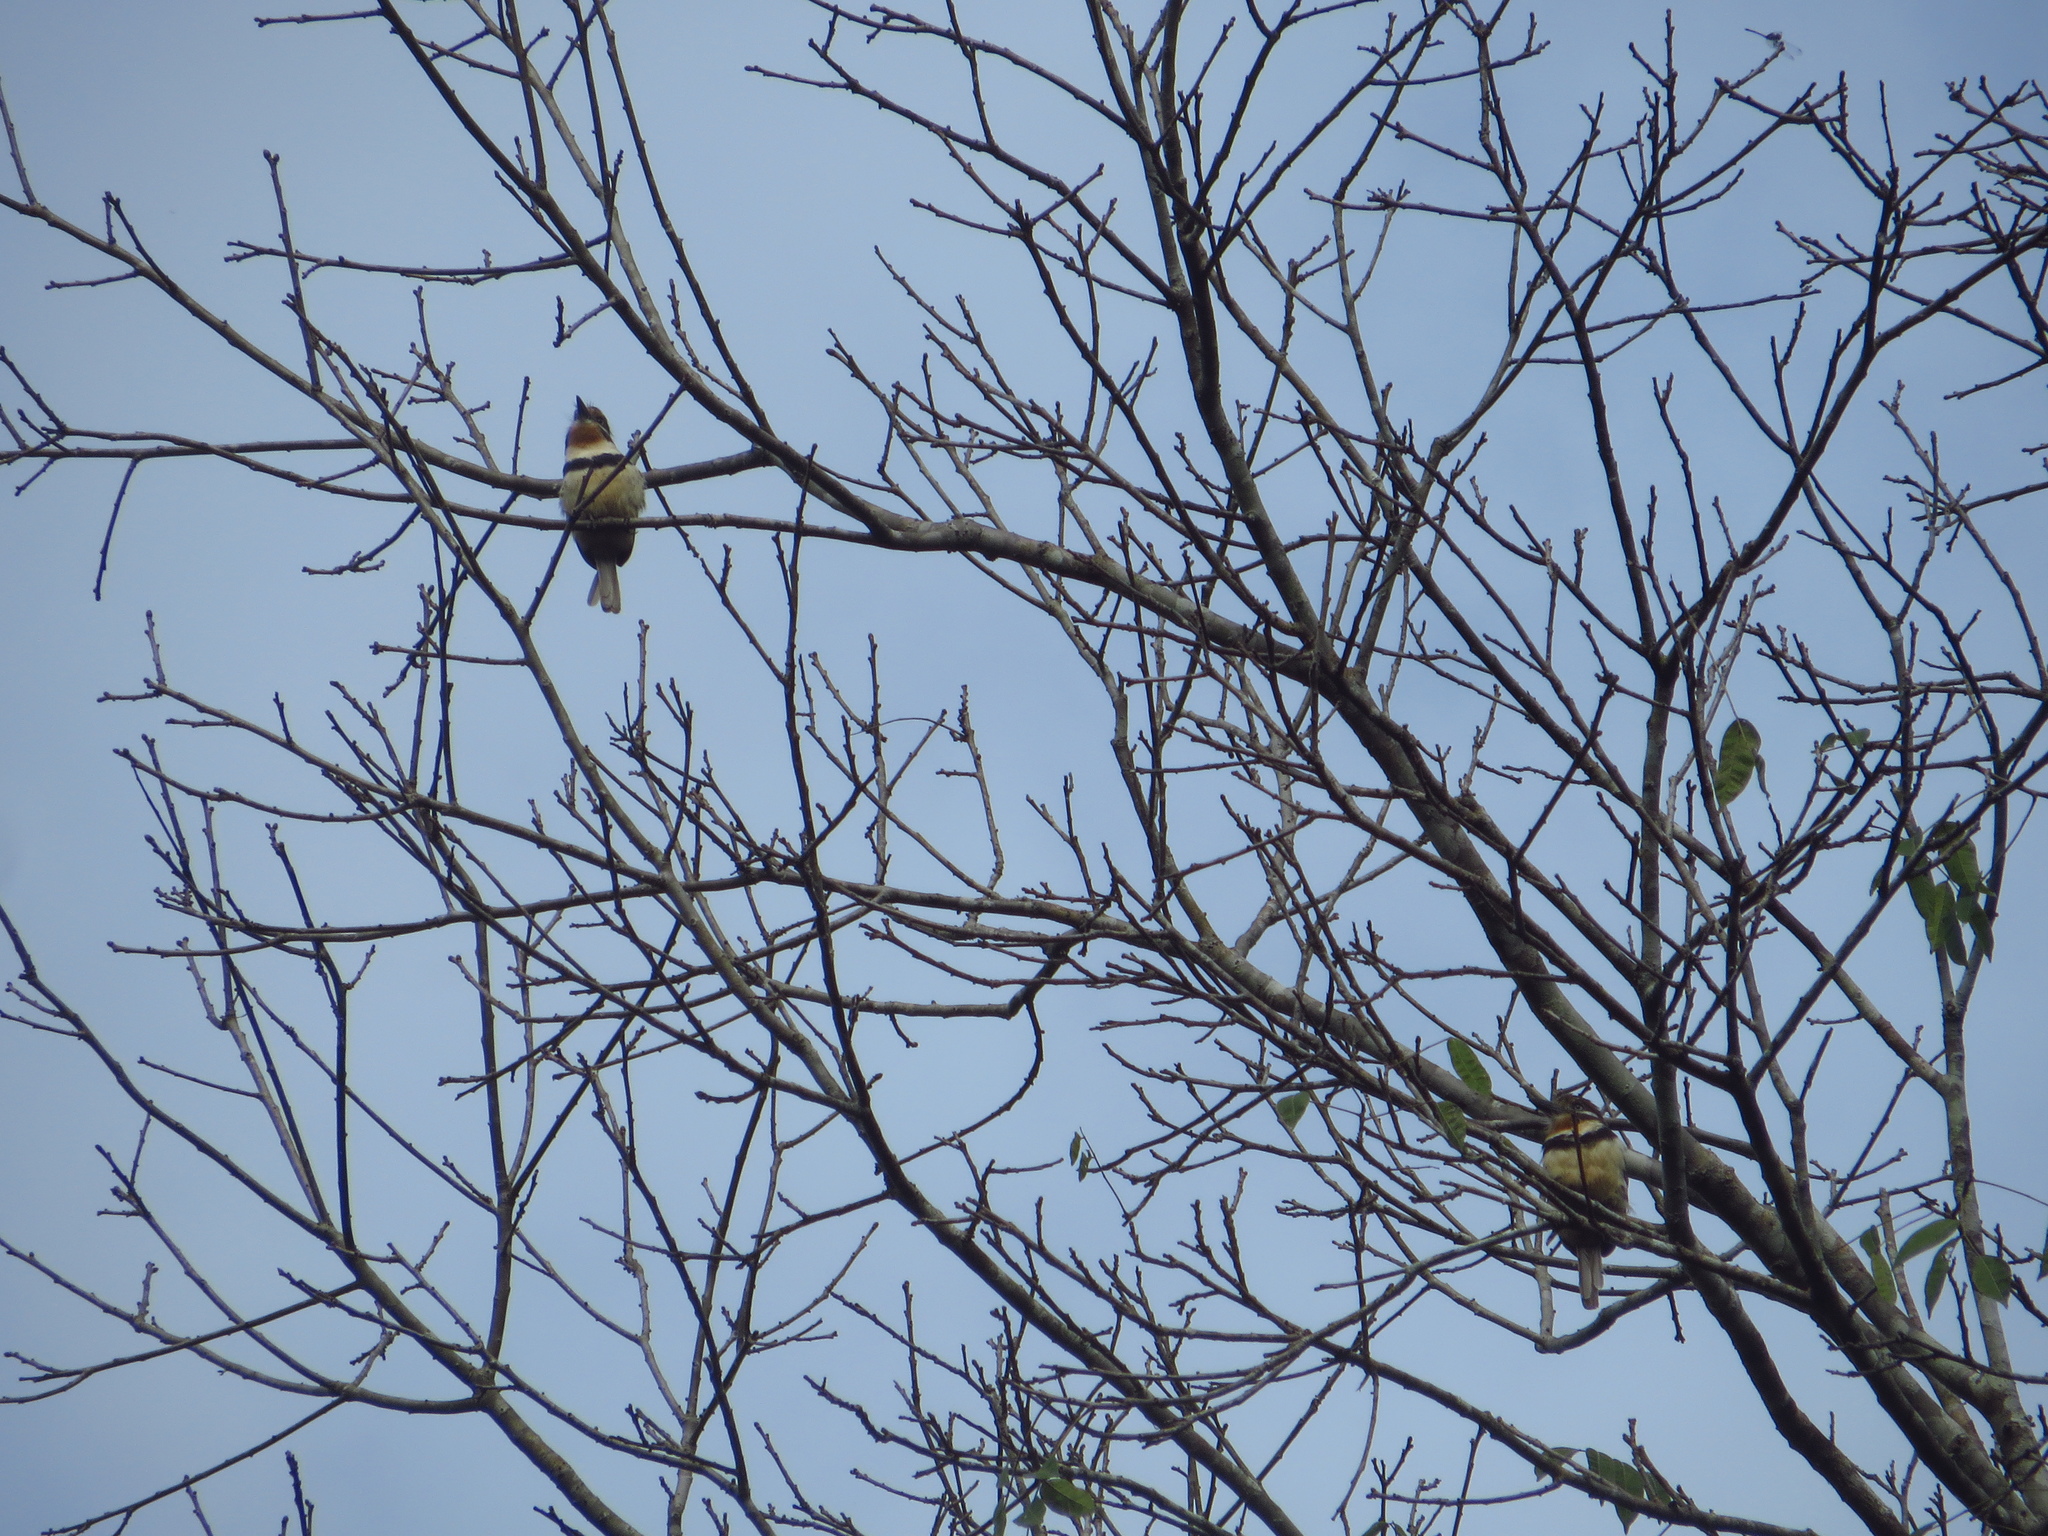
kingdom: Animalia
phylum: Chordata
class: Aves
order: Piciformes
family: Bucconidae
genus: Hypnelus
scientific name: Hypnelus ruficollis
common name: Russet-throated puffbird
